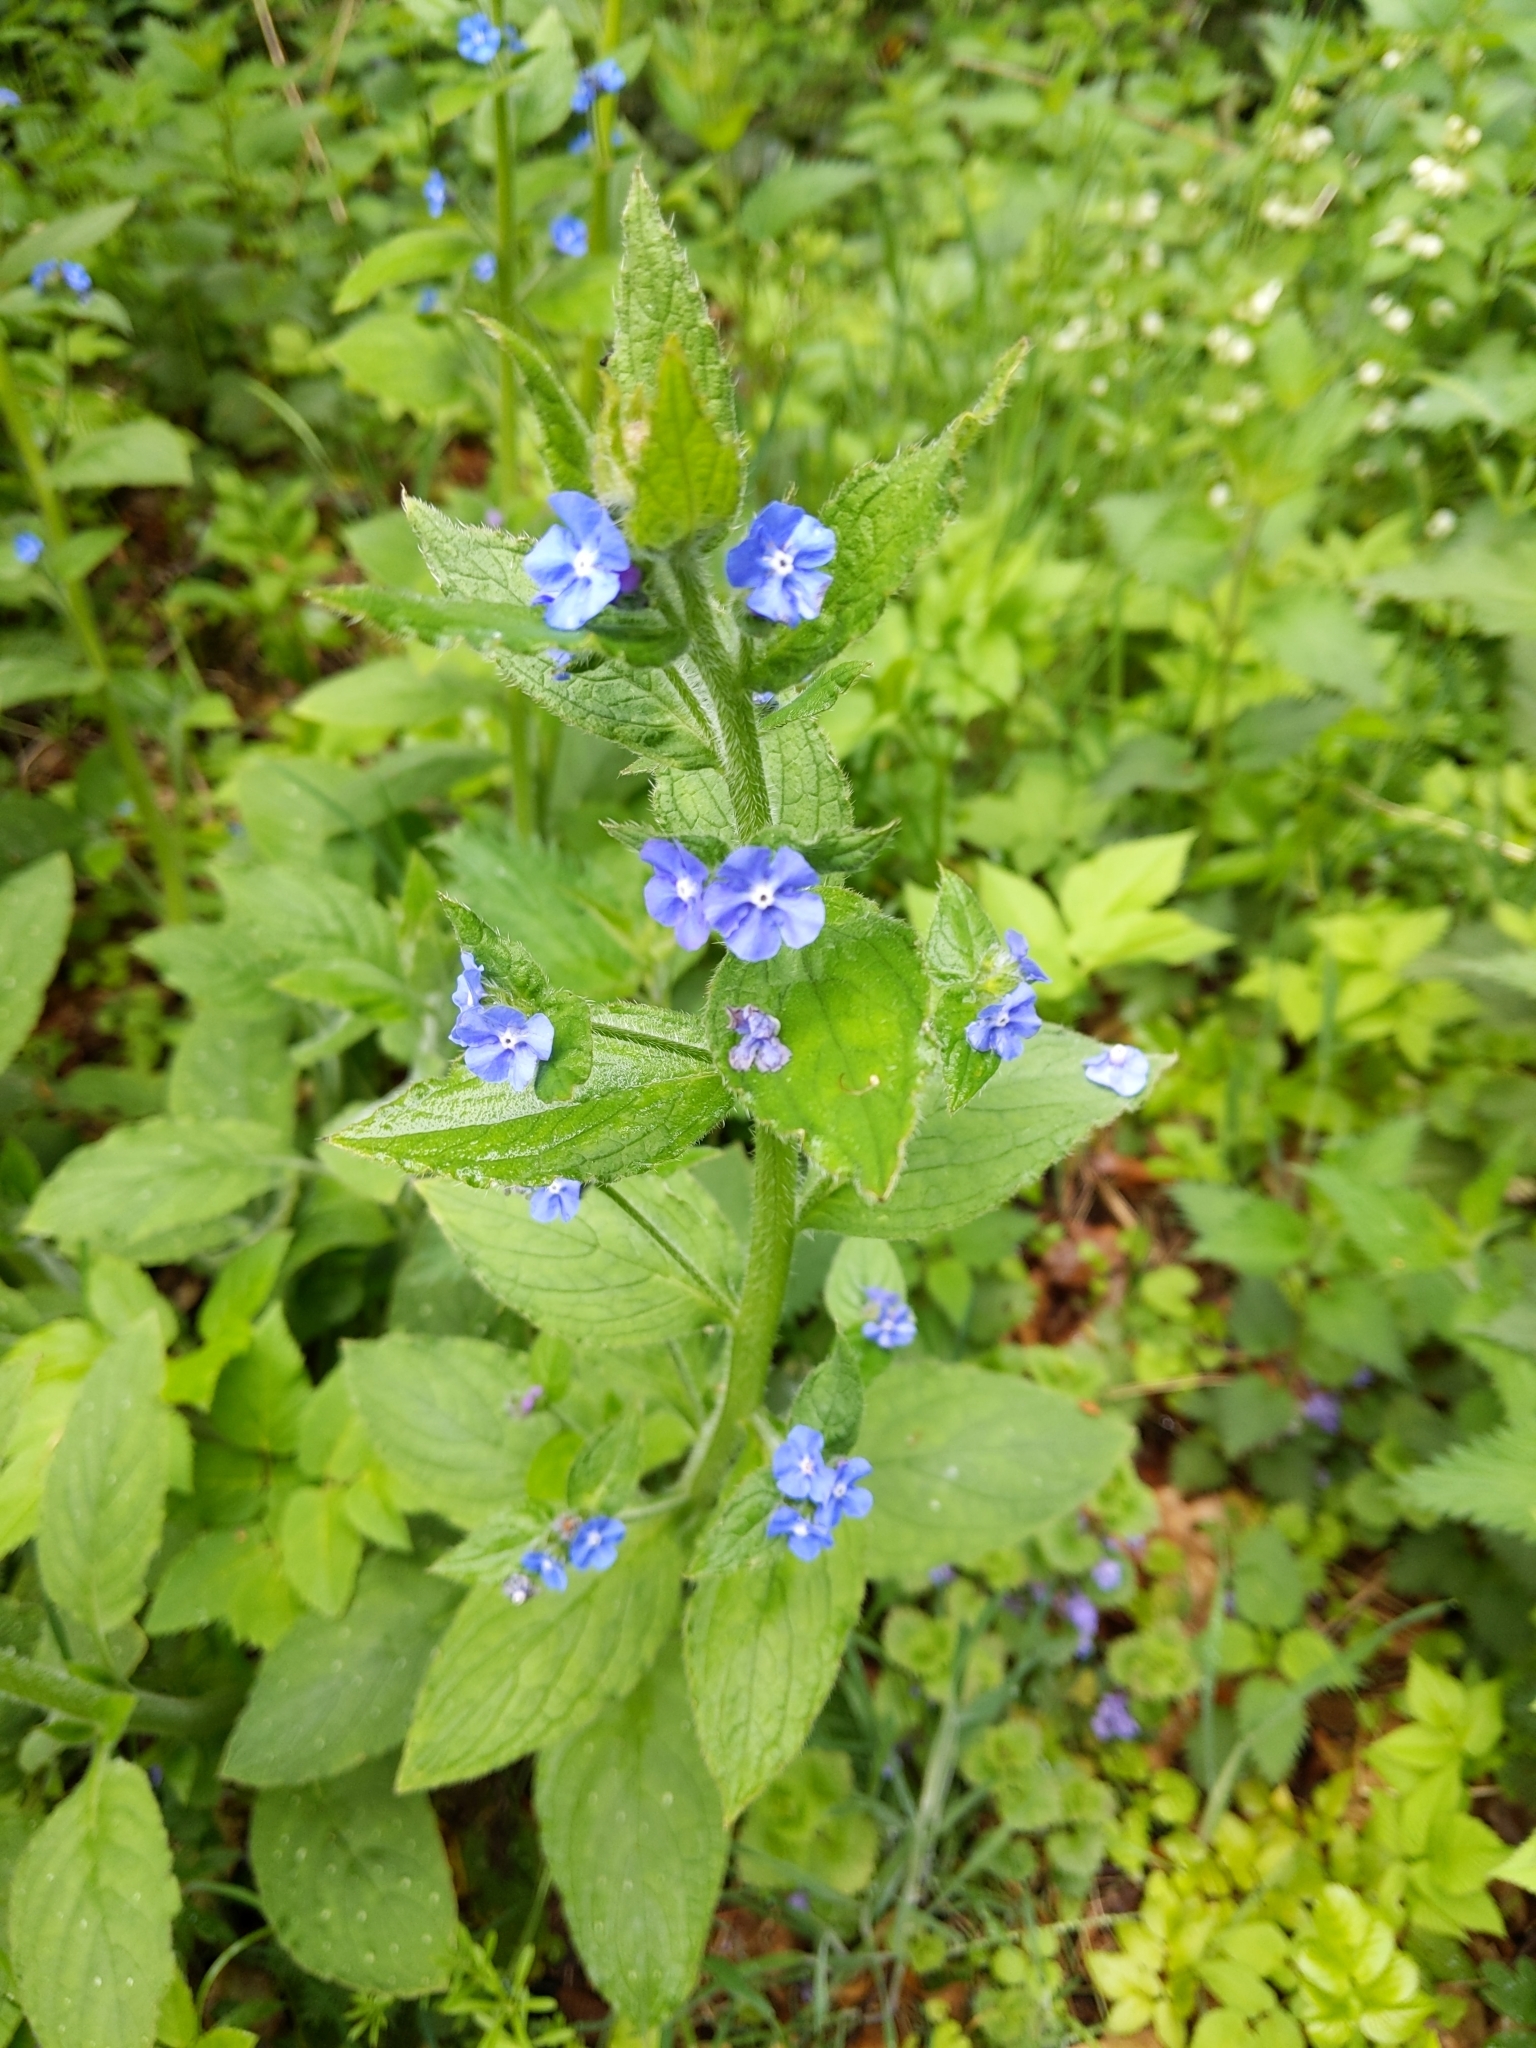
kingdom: Plantae
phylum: Tracheophyta
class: Magnoliopsida
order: Boraginales
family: Boraginaceae
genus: Pentaglottis
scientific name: Pentaglottis sempervirens
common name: Green alkanet
